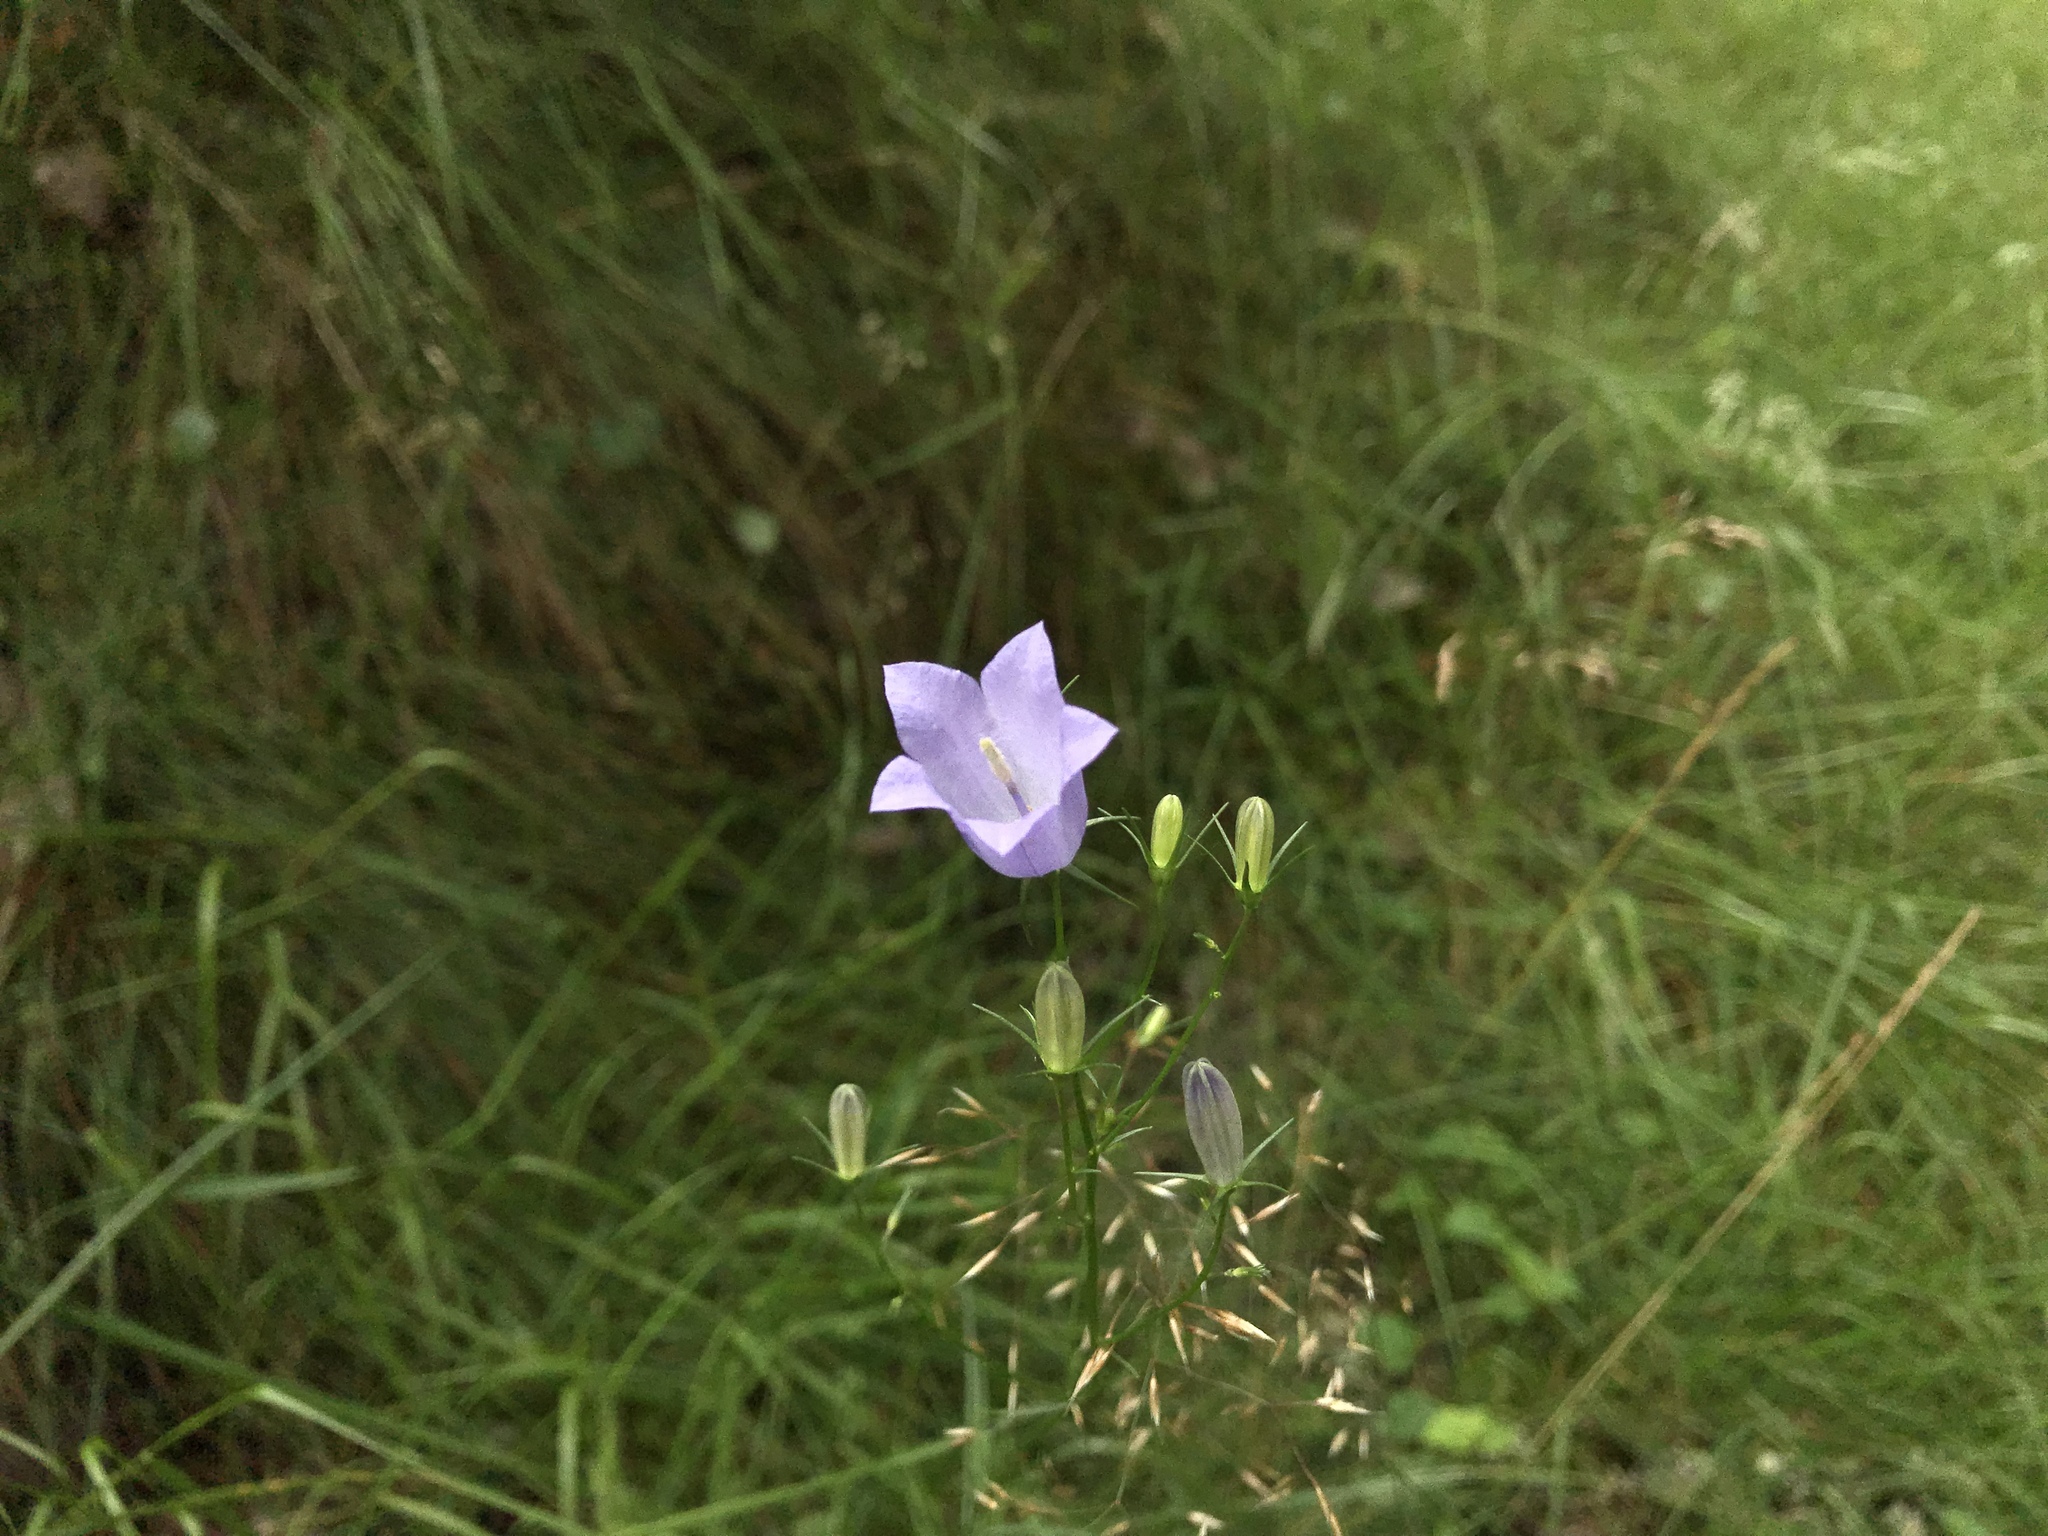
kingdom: Plantae
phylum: Tracheophyta
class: Magnoliopsida
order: Asterales
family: Campanulaceae
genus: Campanula
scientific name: Campanula rotundifolia
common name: Harebell
